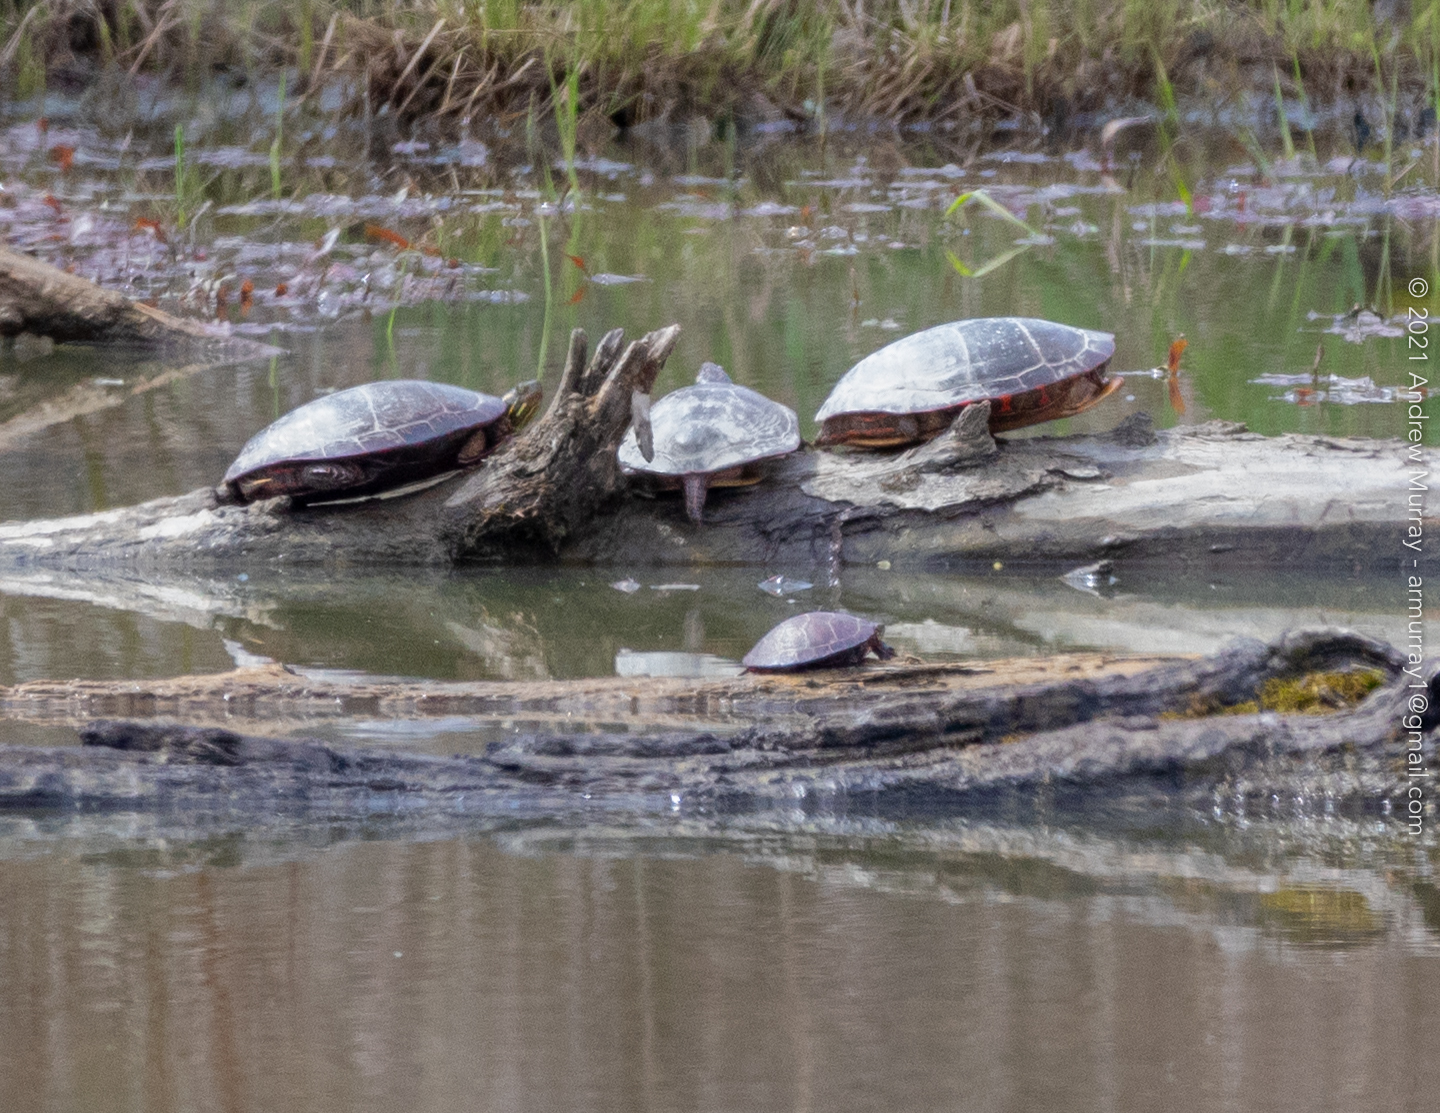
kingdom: Animalia
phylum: Chordata
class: Testudines
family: Emydidae
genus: Chrysemys
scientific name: Chrysemys picta
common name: Painted turtle
